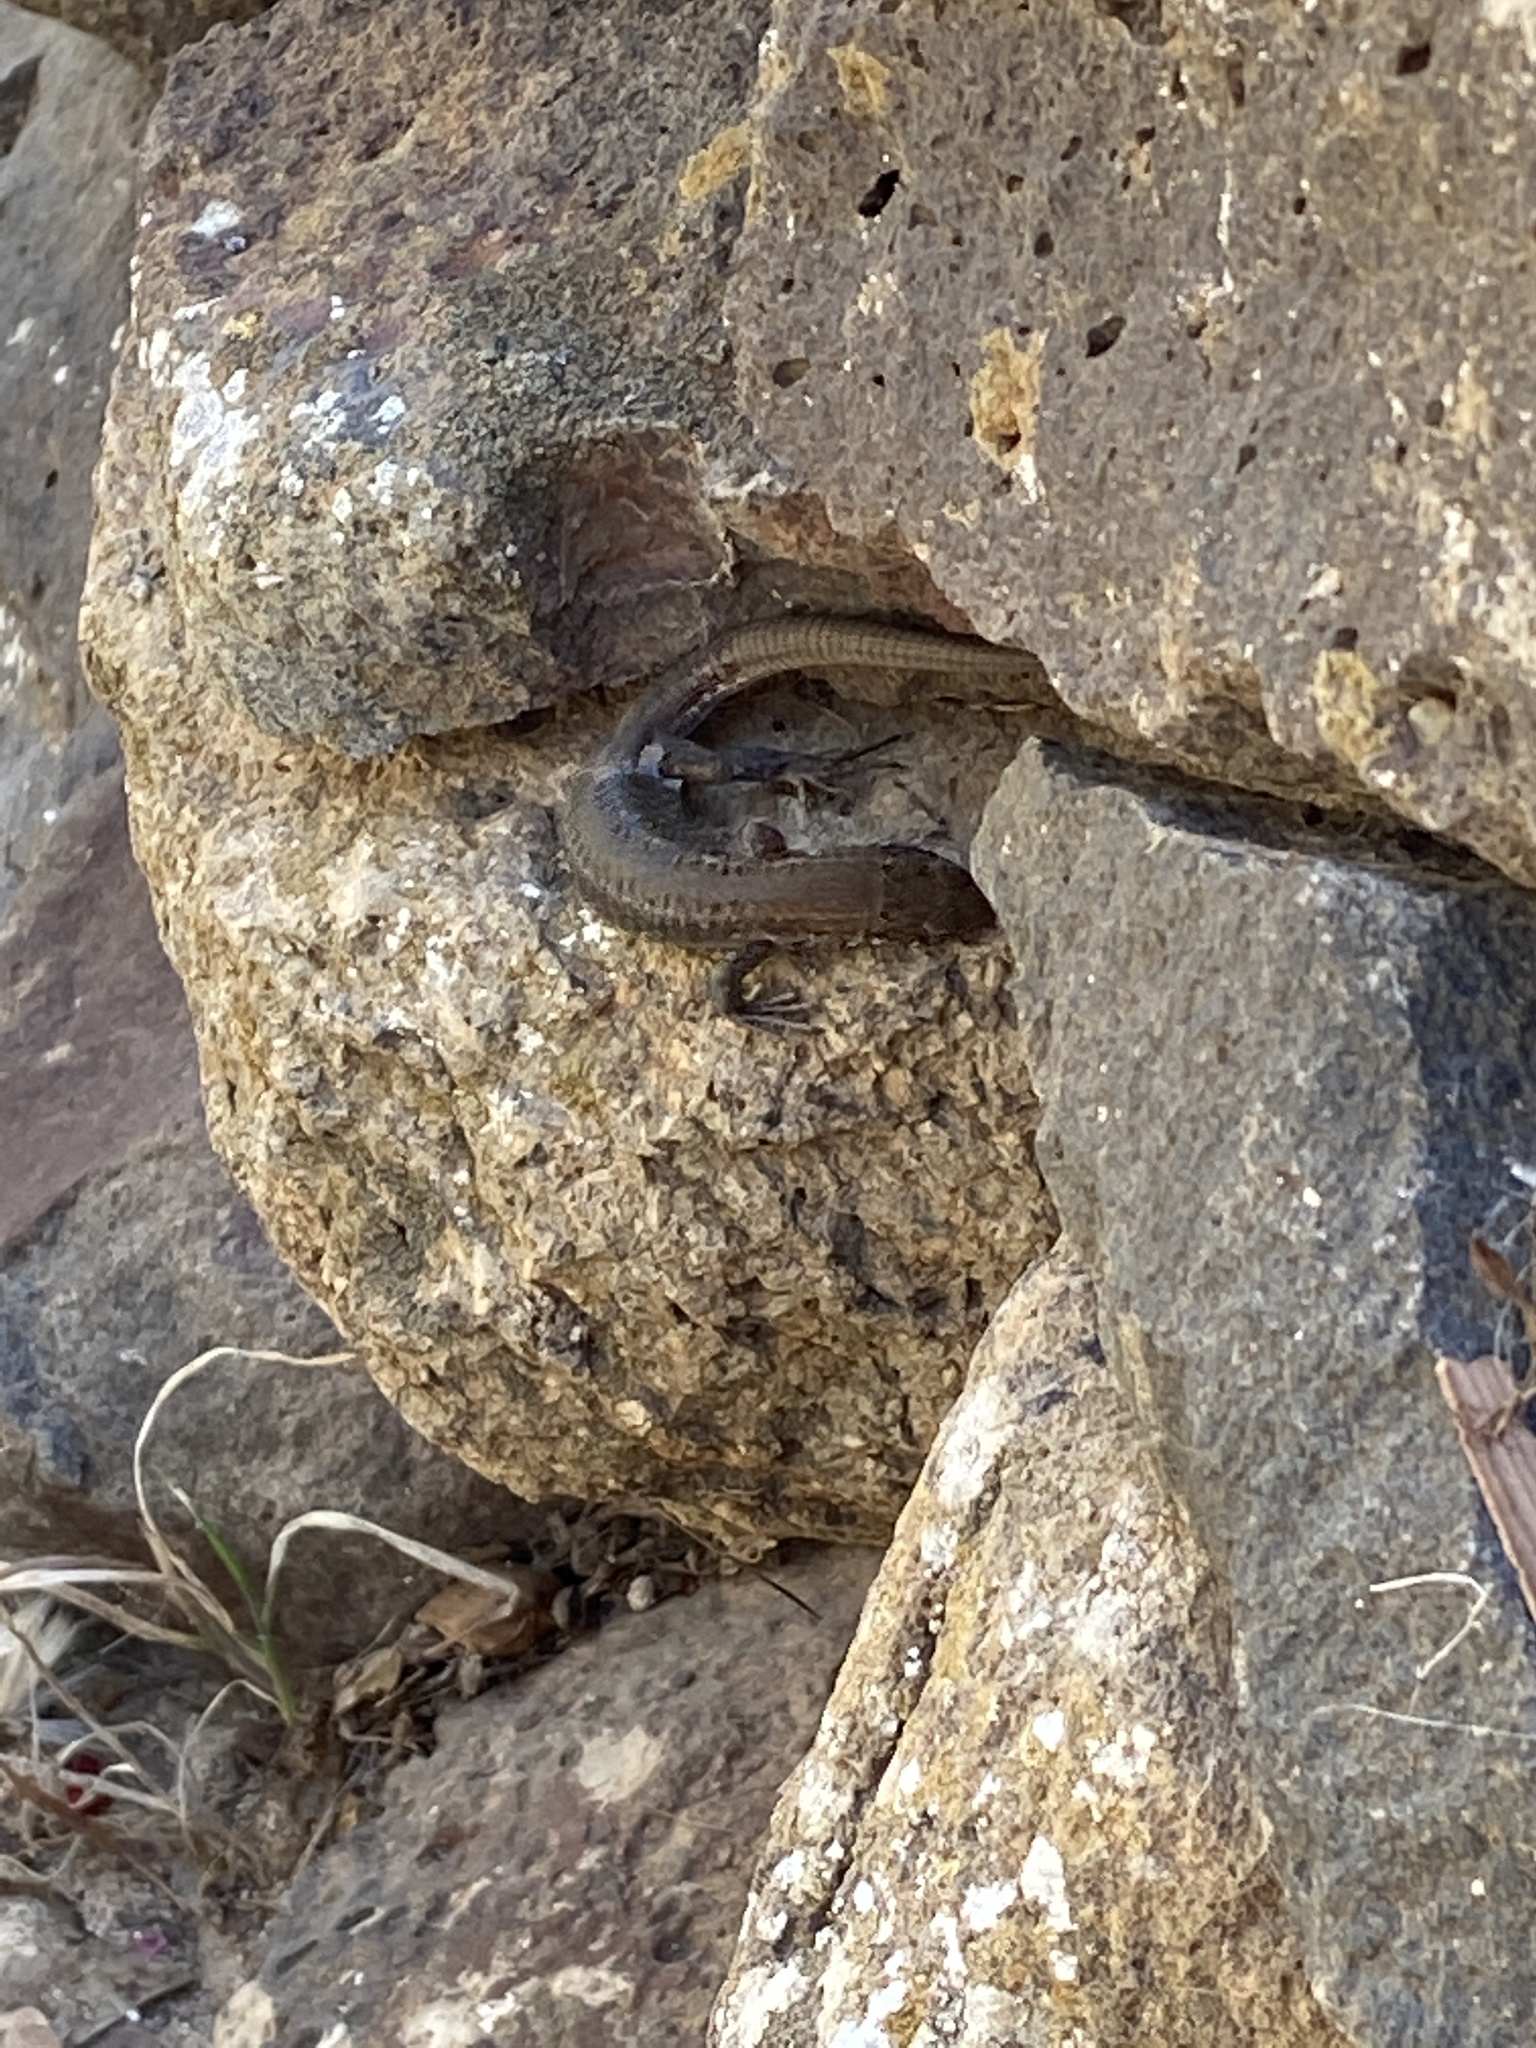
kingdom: Animalia
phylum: Chordata
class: Squamata
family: Lacertidae
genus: Gallotia
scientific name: Gallotia atlantica
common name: Atlantic lizard
